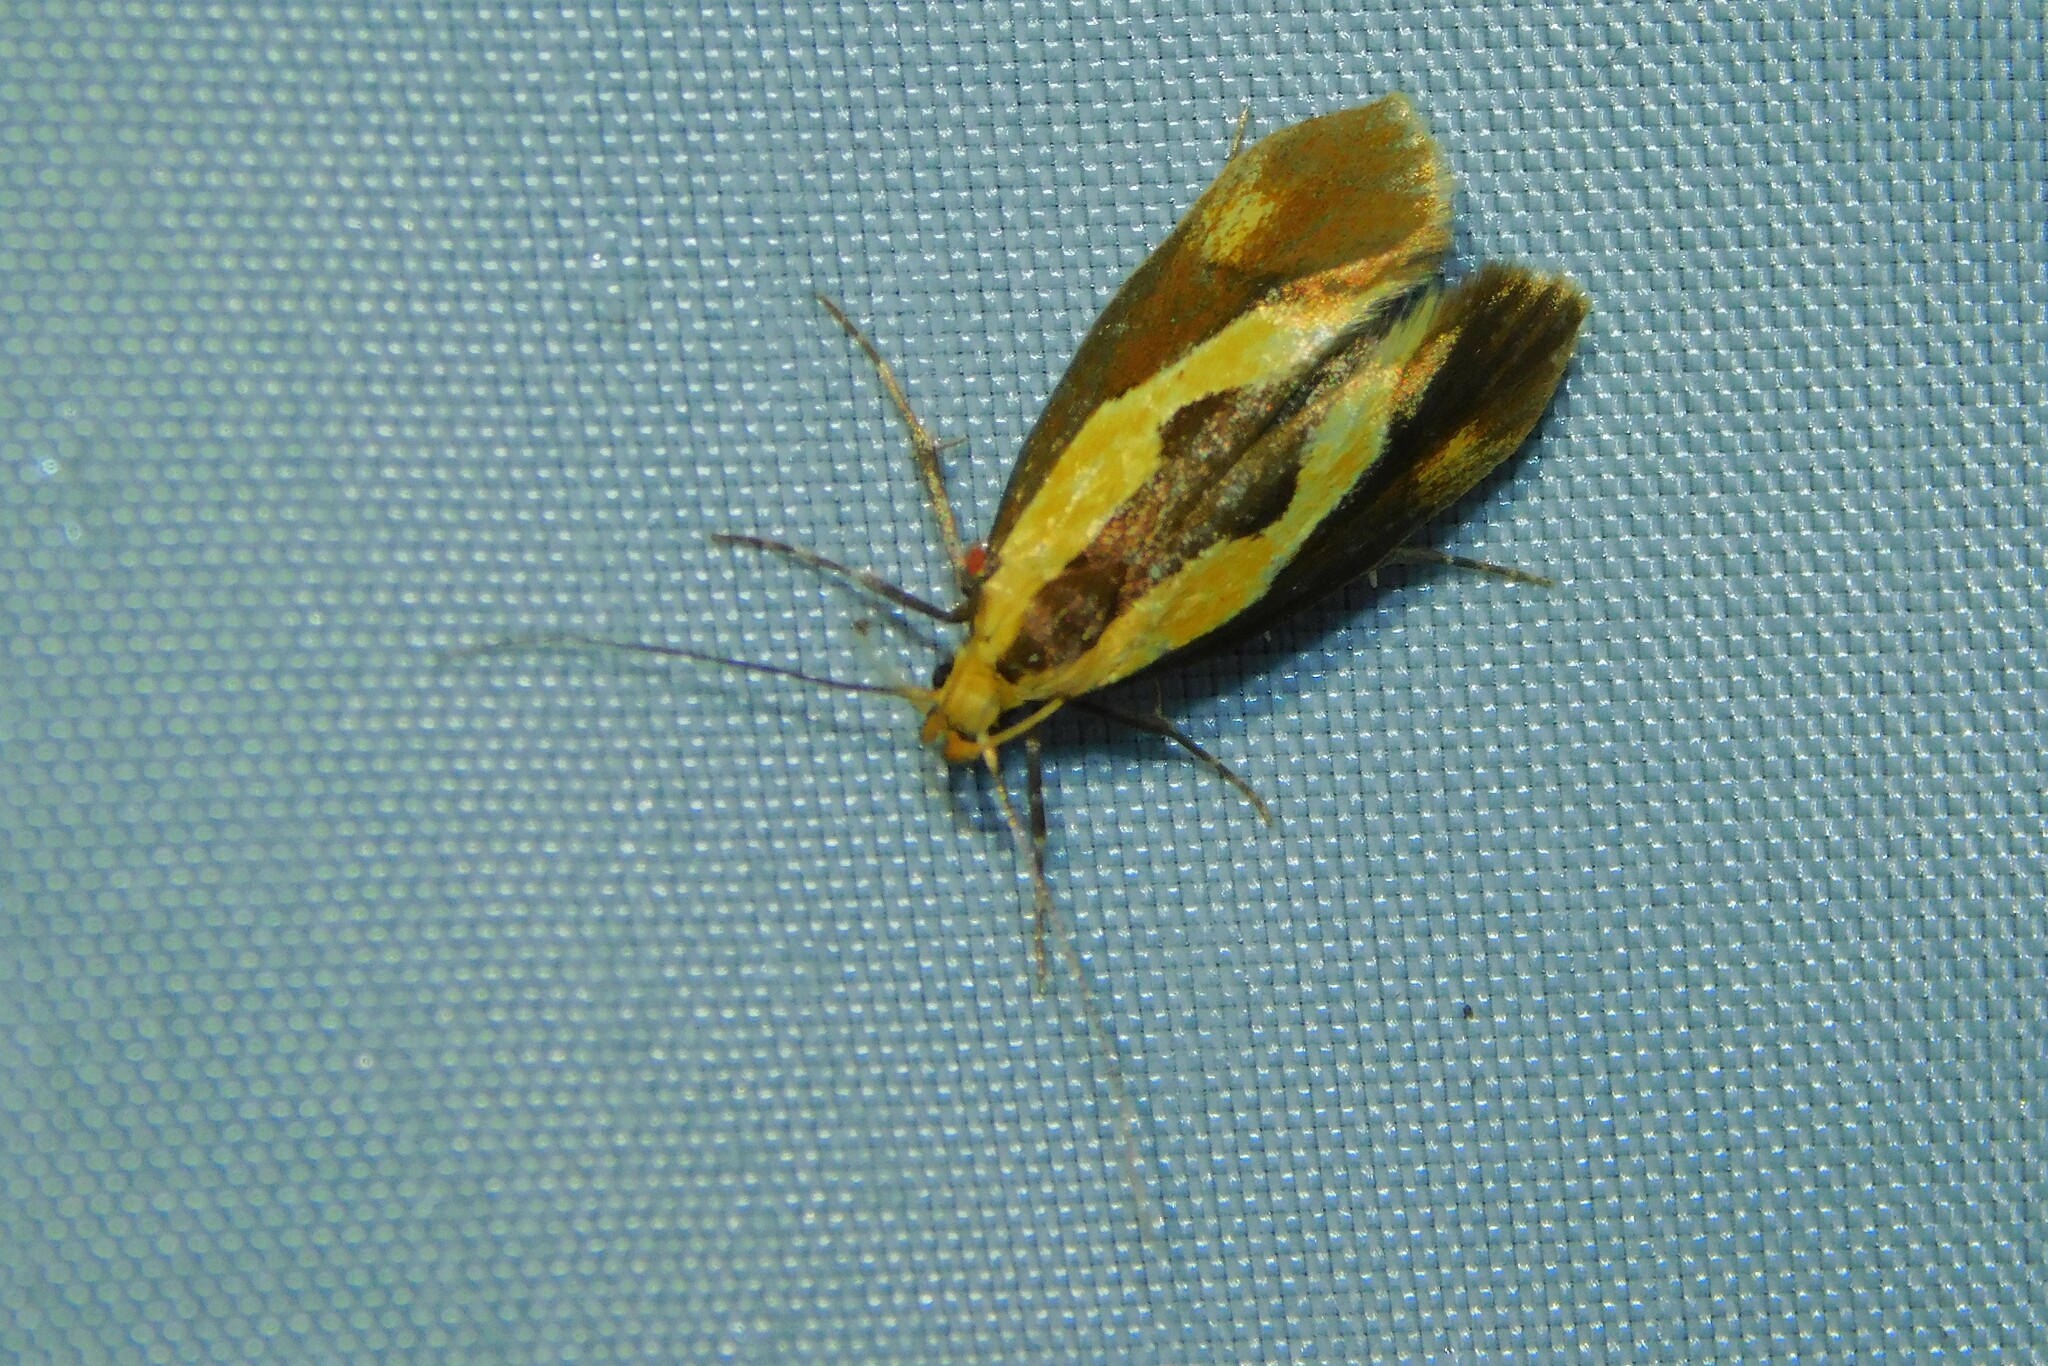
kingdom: Animalia
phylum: Arthropoda
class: Insecta
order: Lepidoptera
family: Oecophoridae
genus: Harpella
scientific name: Harpella forficella
